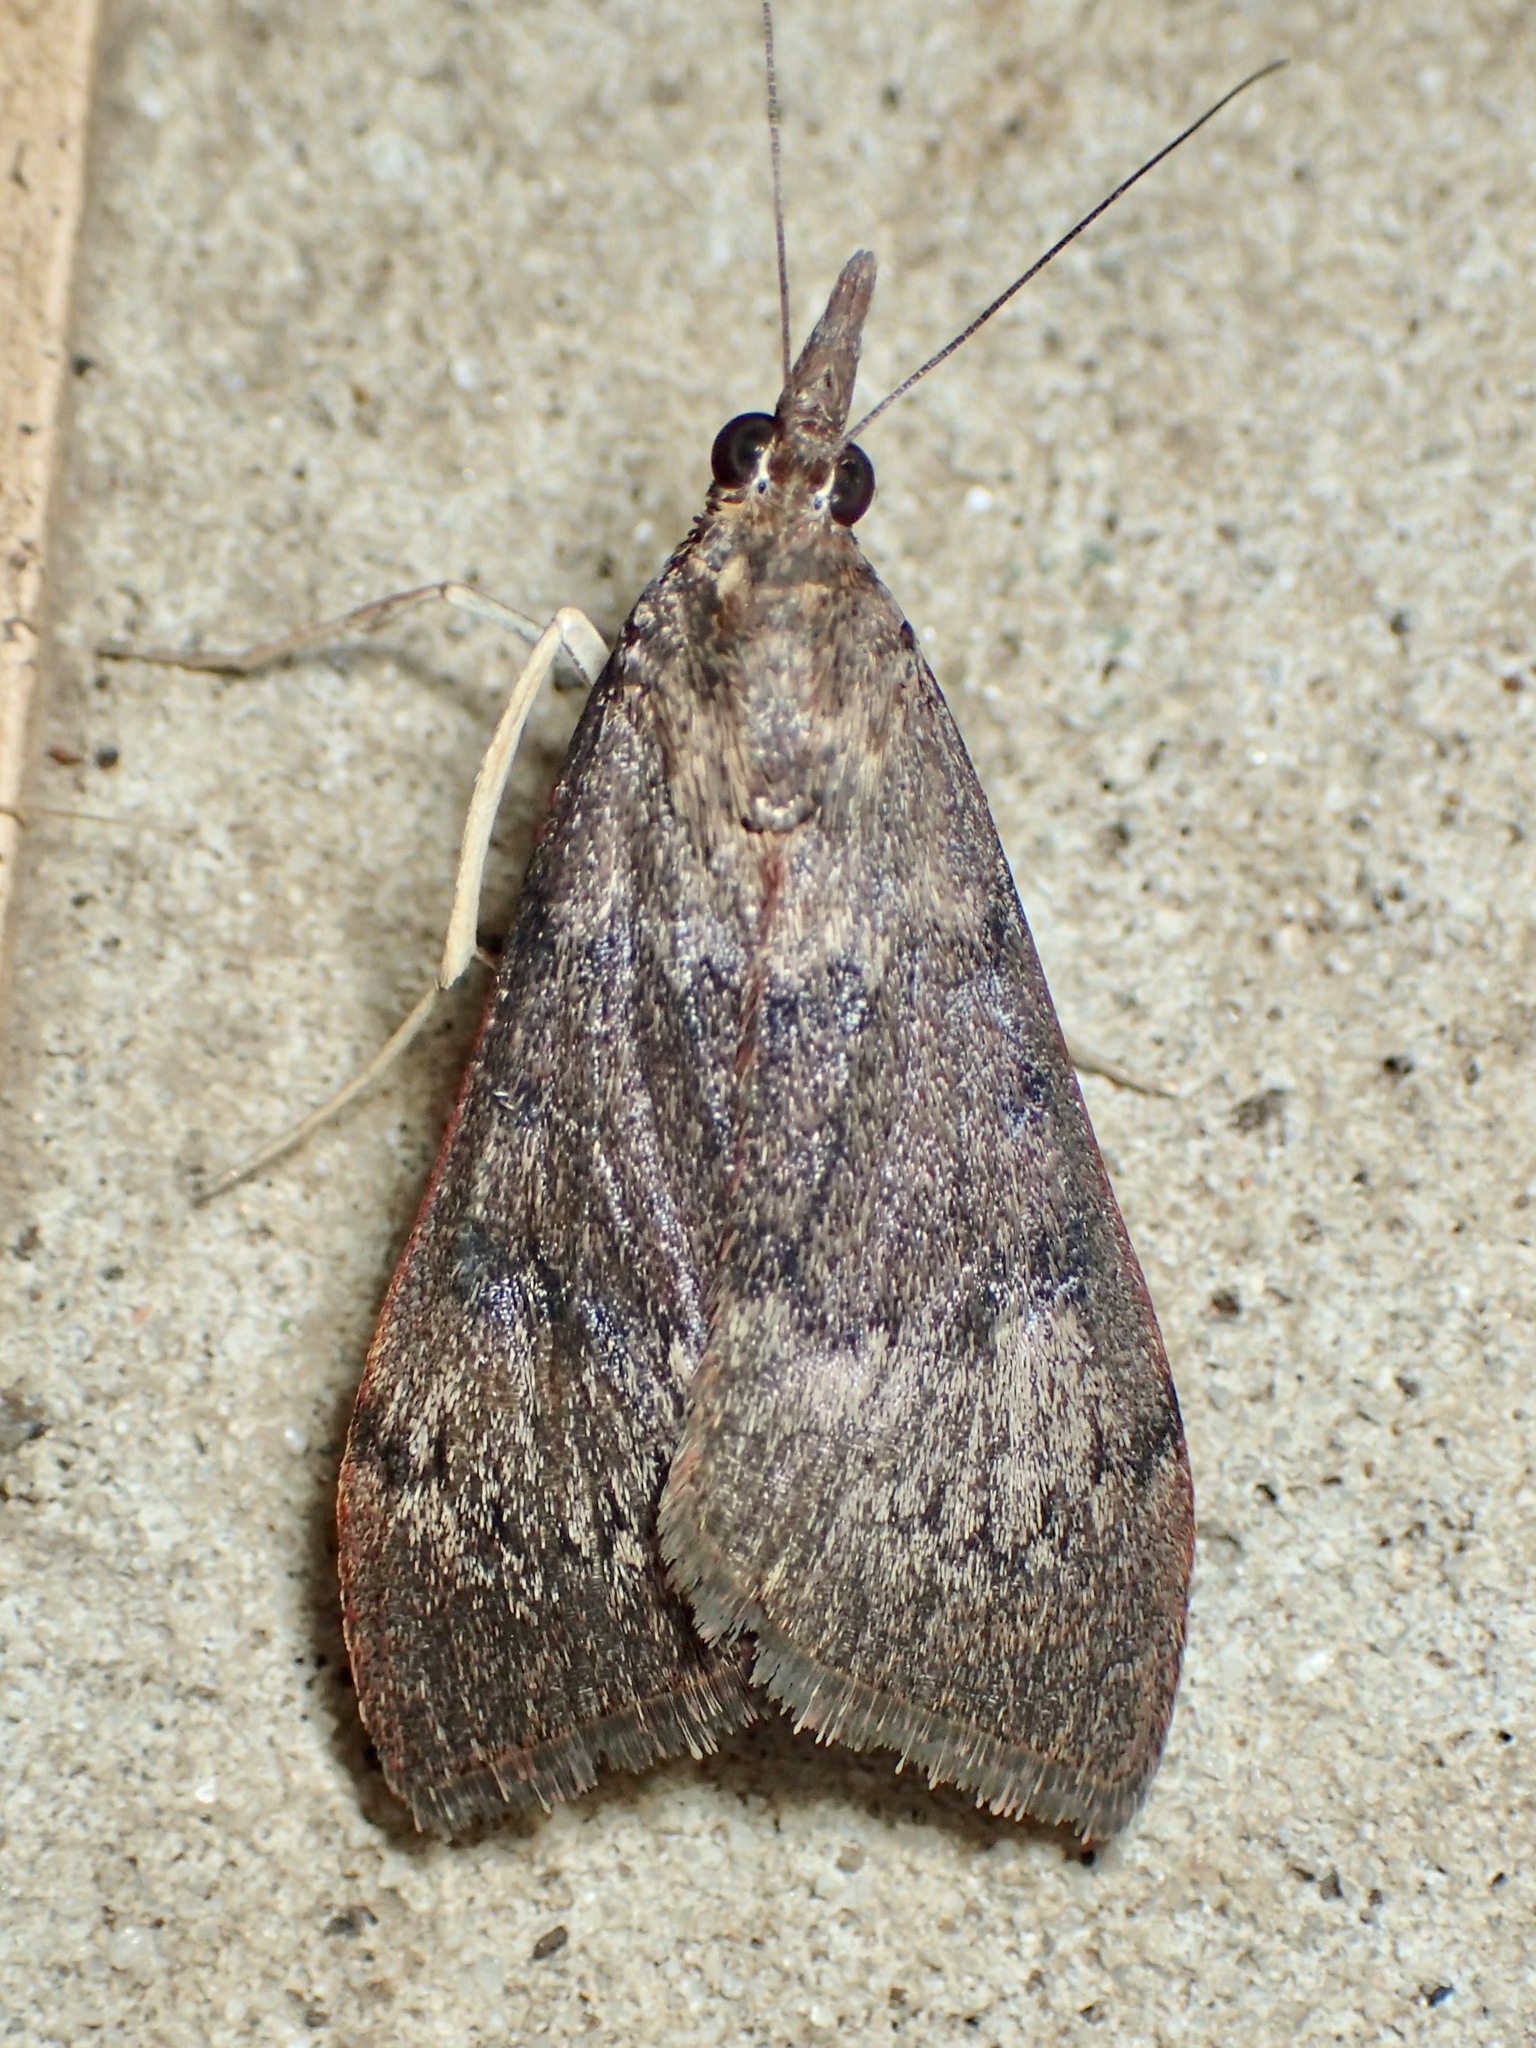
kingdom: Animalia
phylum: Arthropoda
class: Insecta
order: Lepidoptera
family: Crambidae
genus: Uresiphita
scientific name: Uresiphita ornithopteralis
